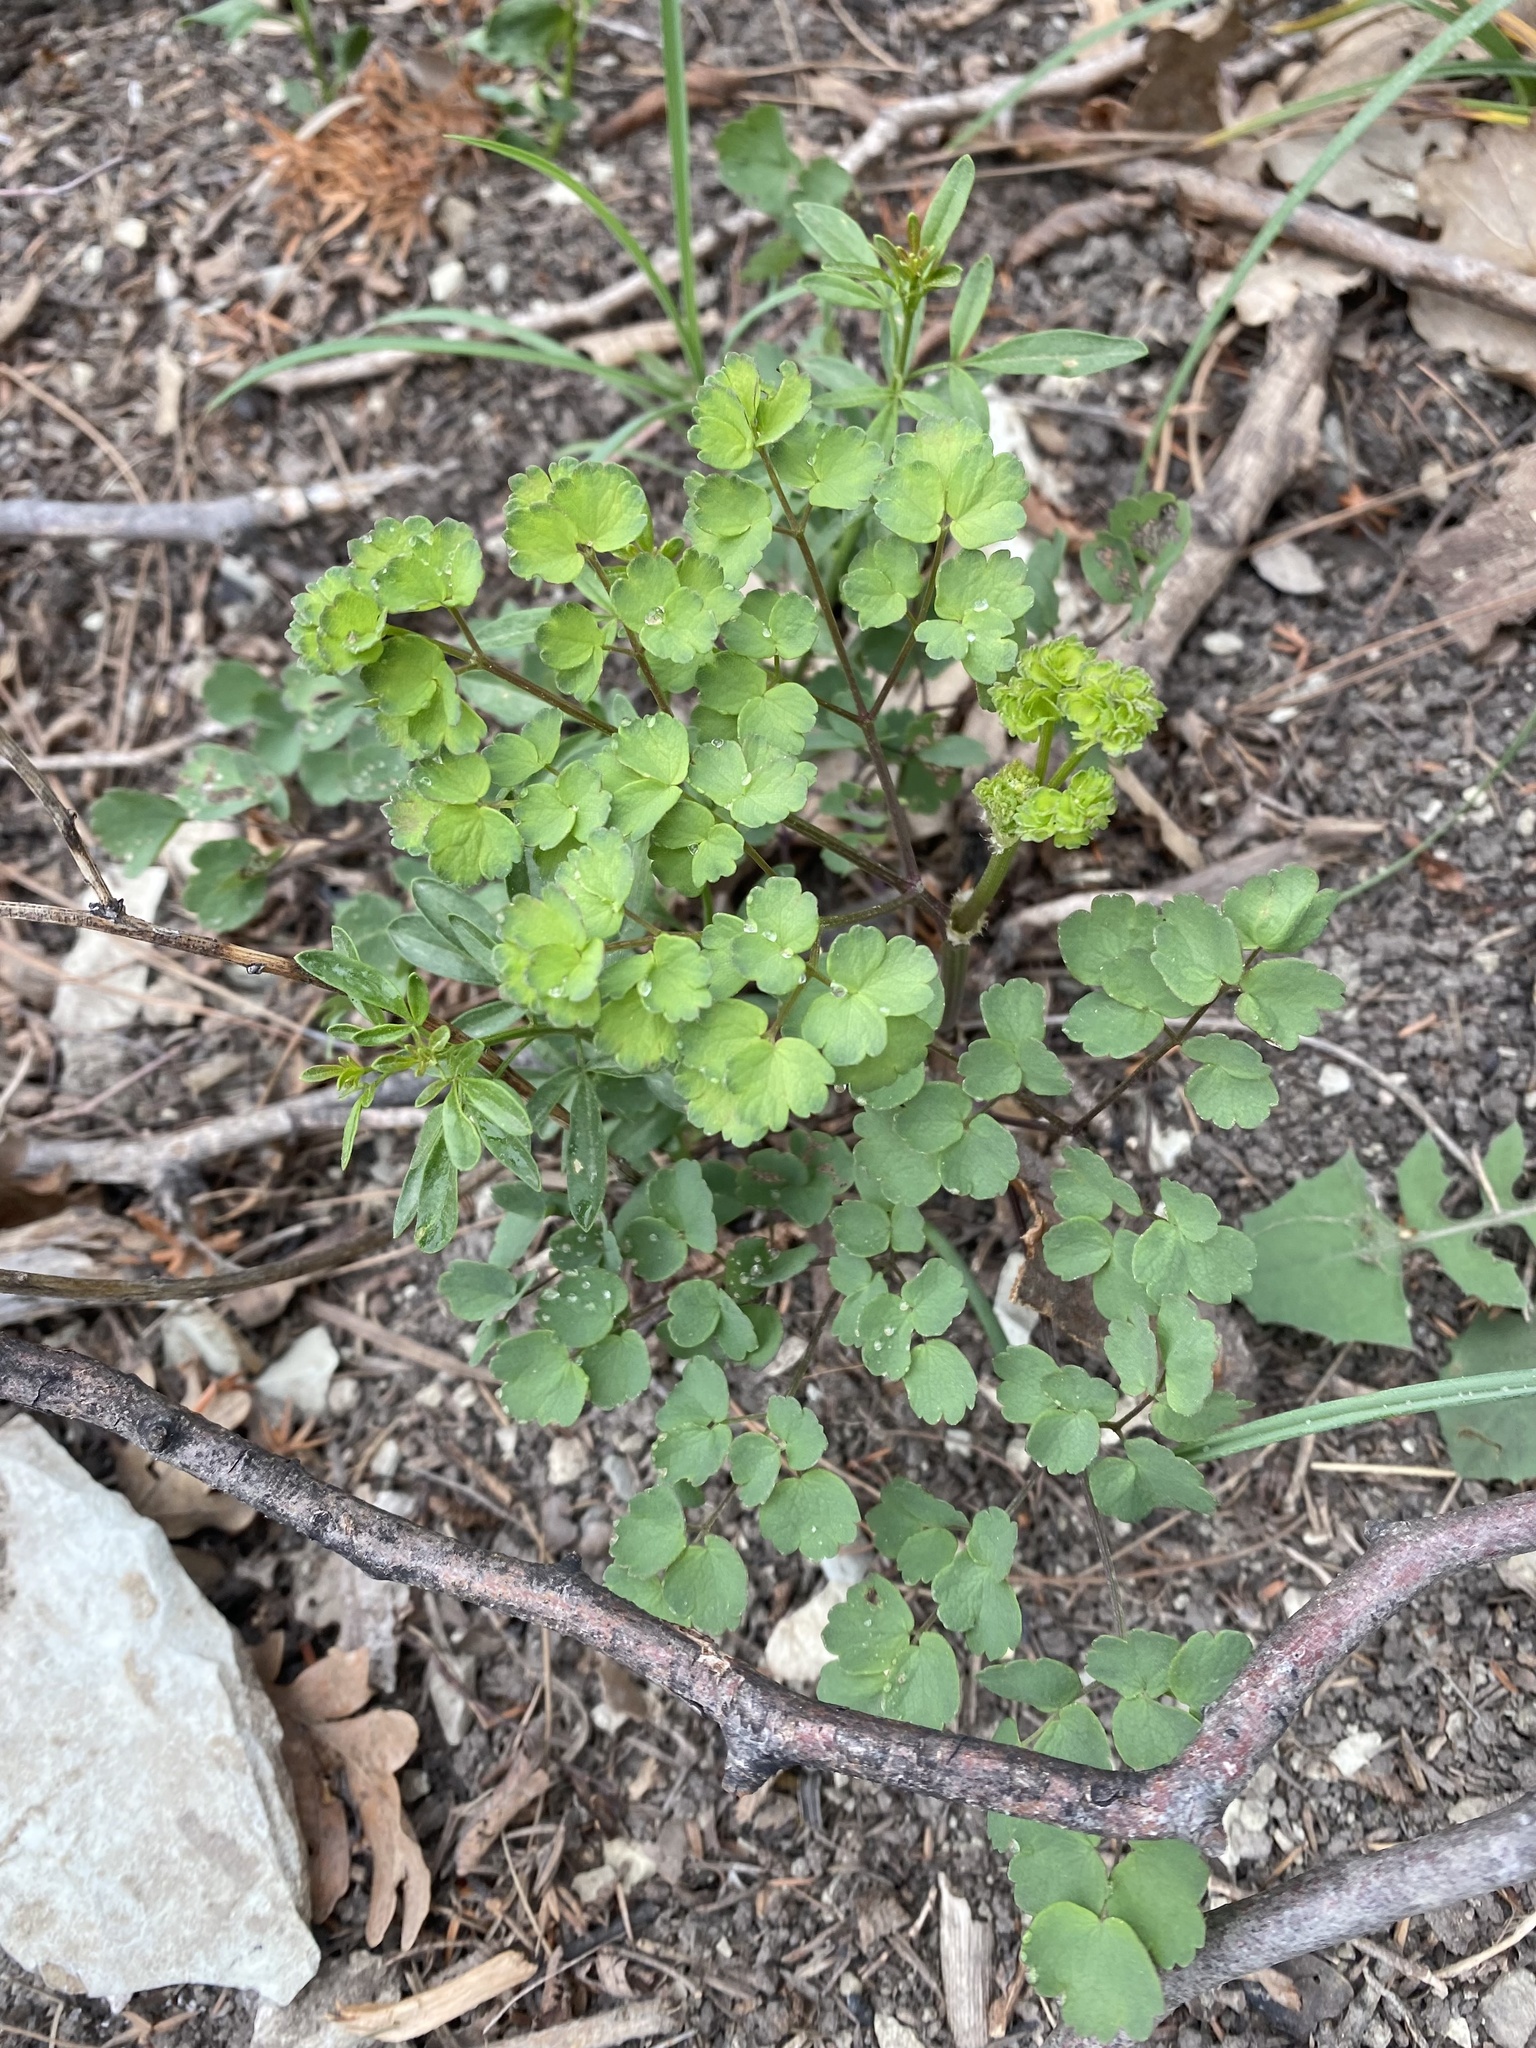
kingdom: Plantae
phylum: Tracheophyta
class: Magnoliopsida
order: Ranunculales
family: Ranunculaceae
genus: Thalictrum
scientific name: Thalictrum minus
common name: Lesser meadow-rue
